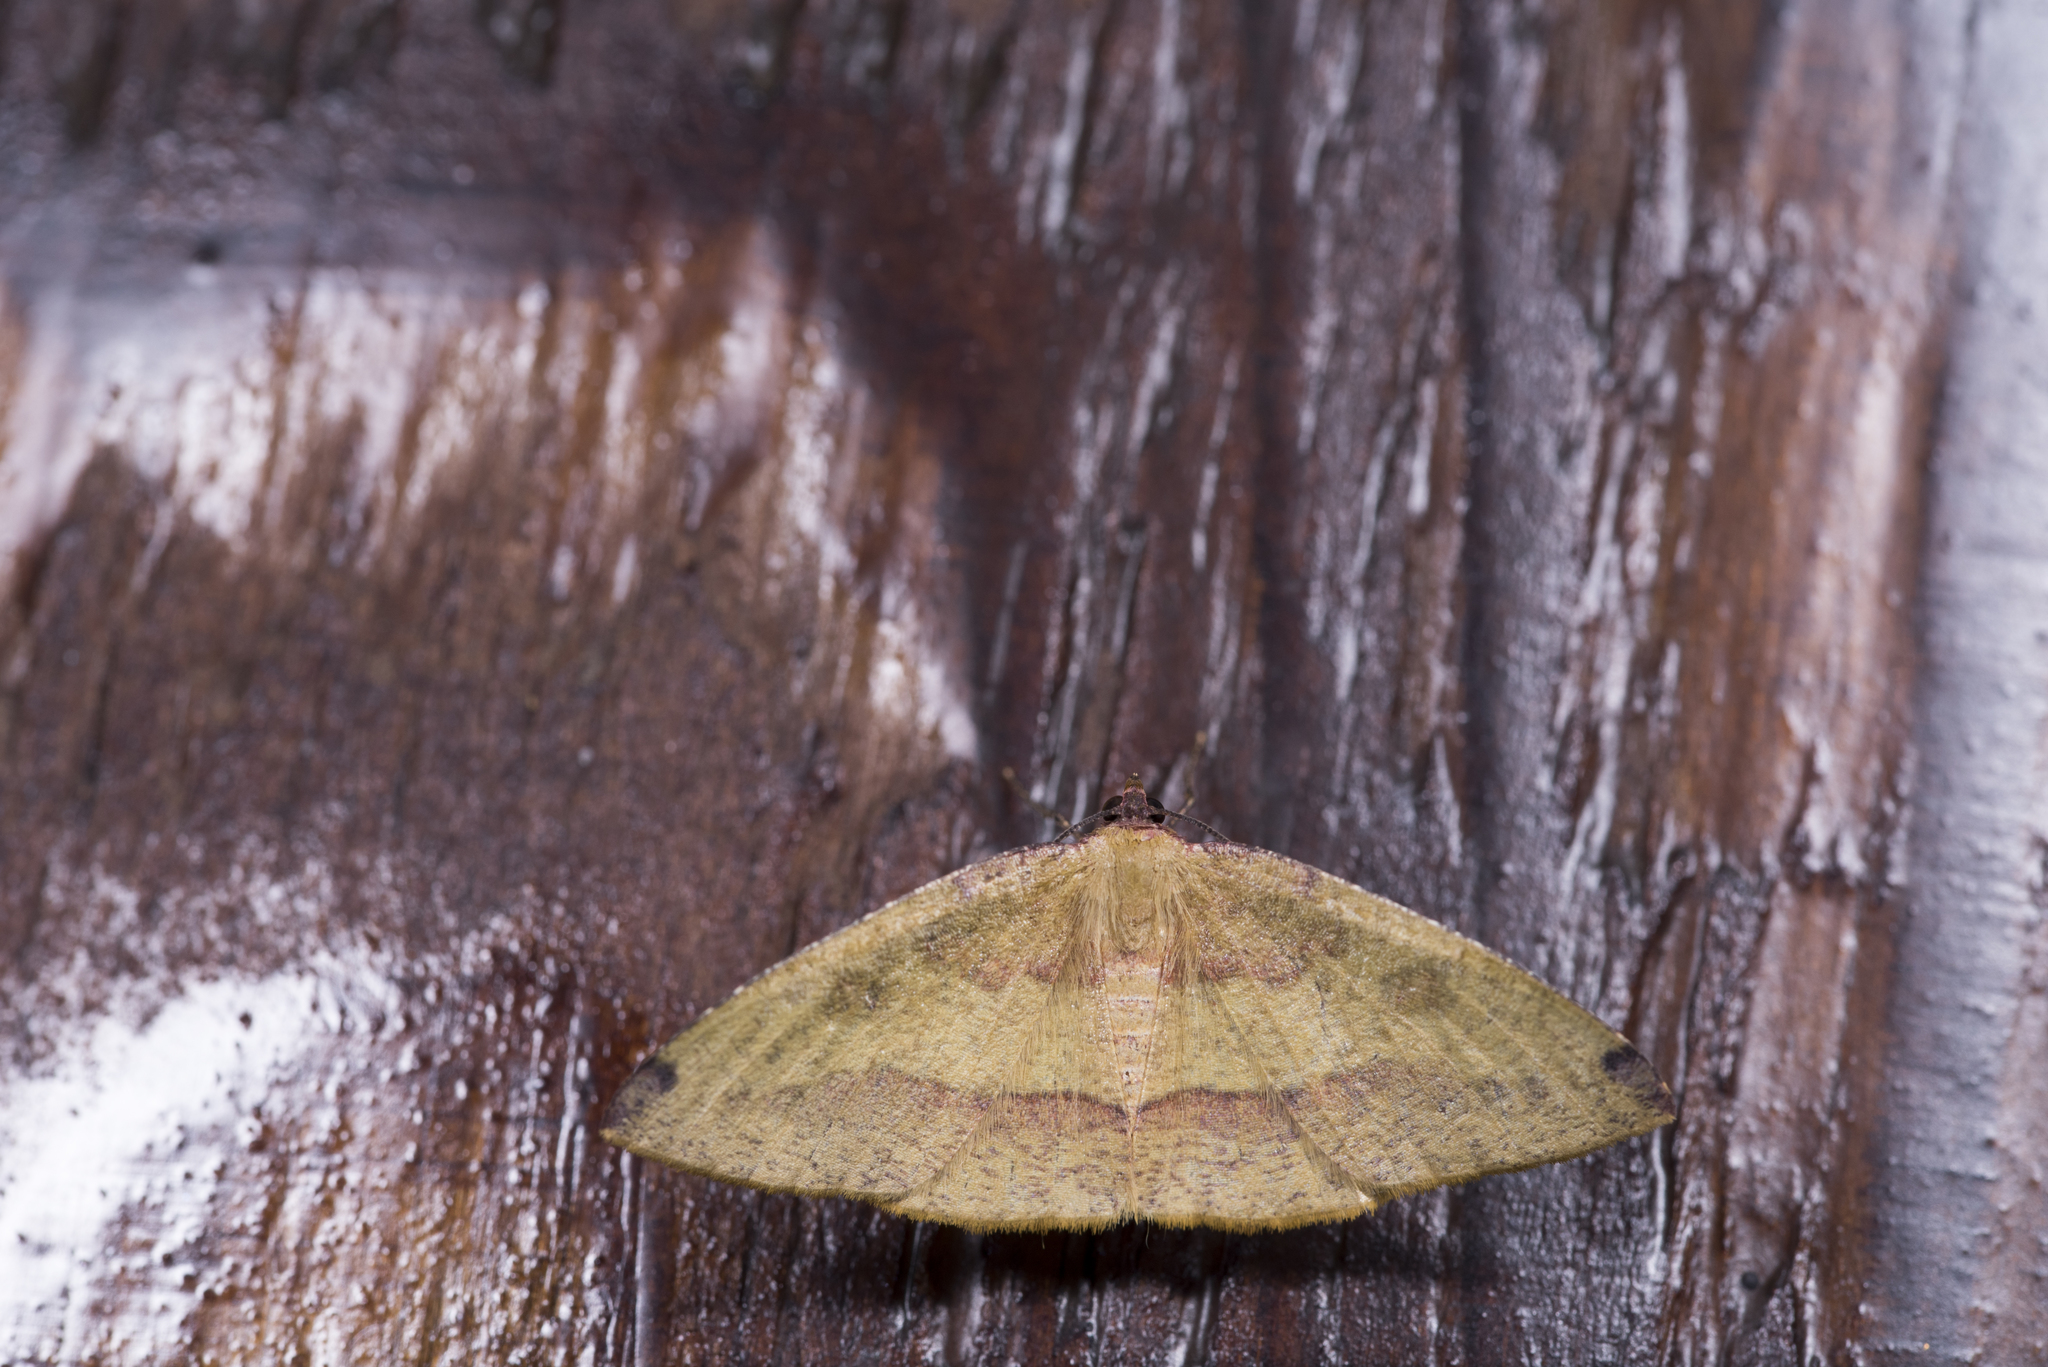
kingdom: Animalia
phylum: Arthropoda
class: Insecta
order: Lepidoptera
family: Geometridae
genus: Heterolocha
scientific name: Heterolocha coccinea
